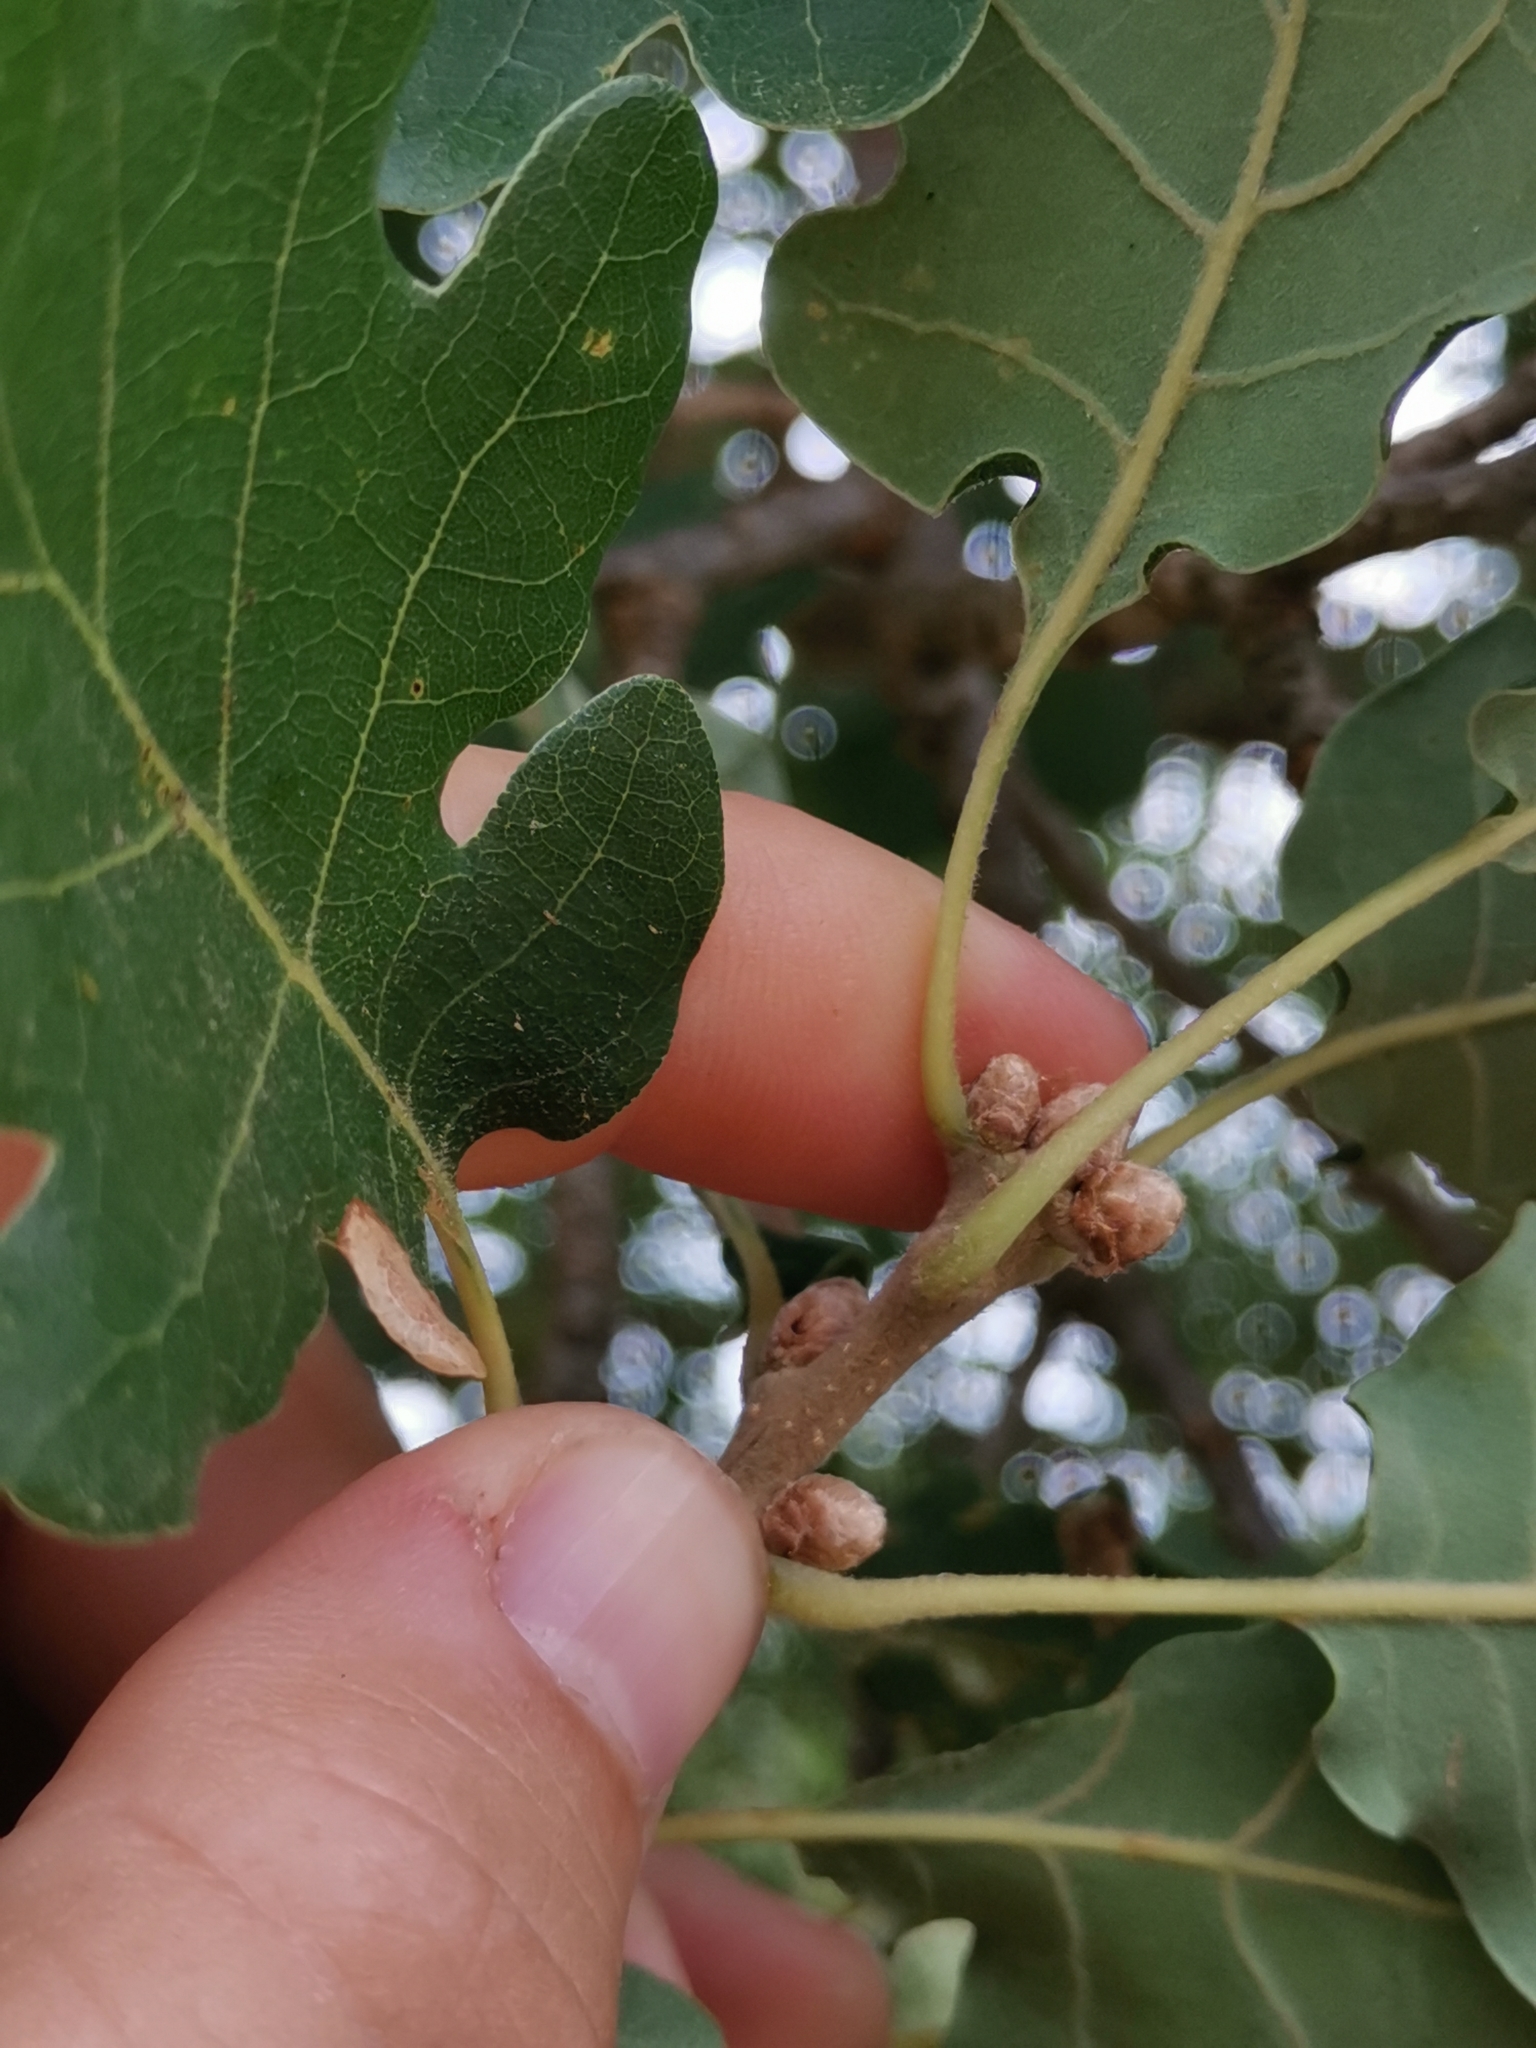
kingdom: Plantae
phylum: Tracheophyta
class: Magnoliopsida
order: Fagales
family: Fagaceae
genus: Quercus
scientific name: Quercus pubescens
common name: Downy oak
